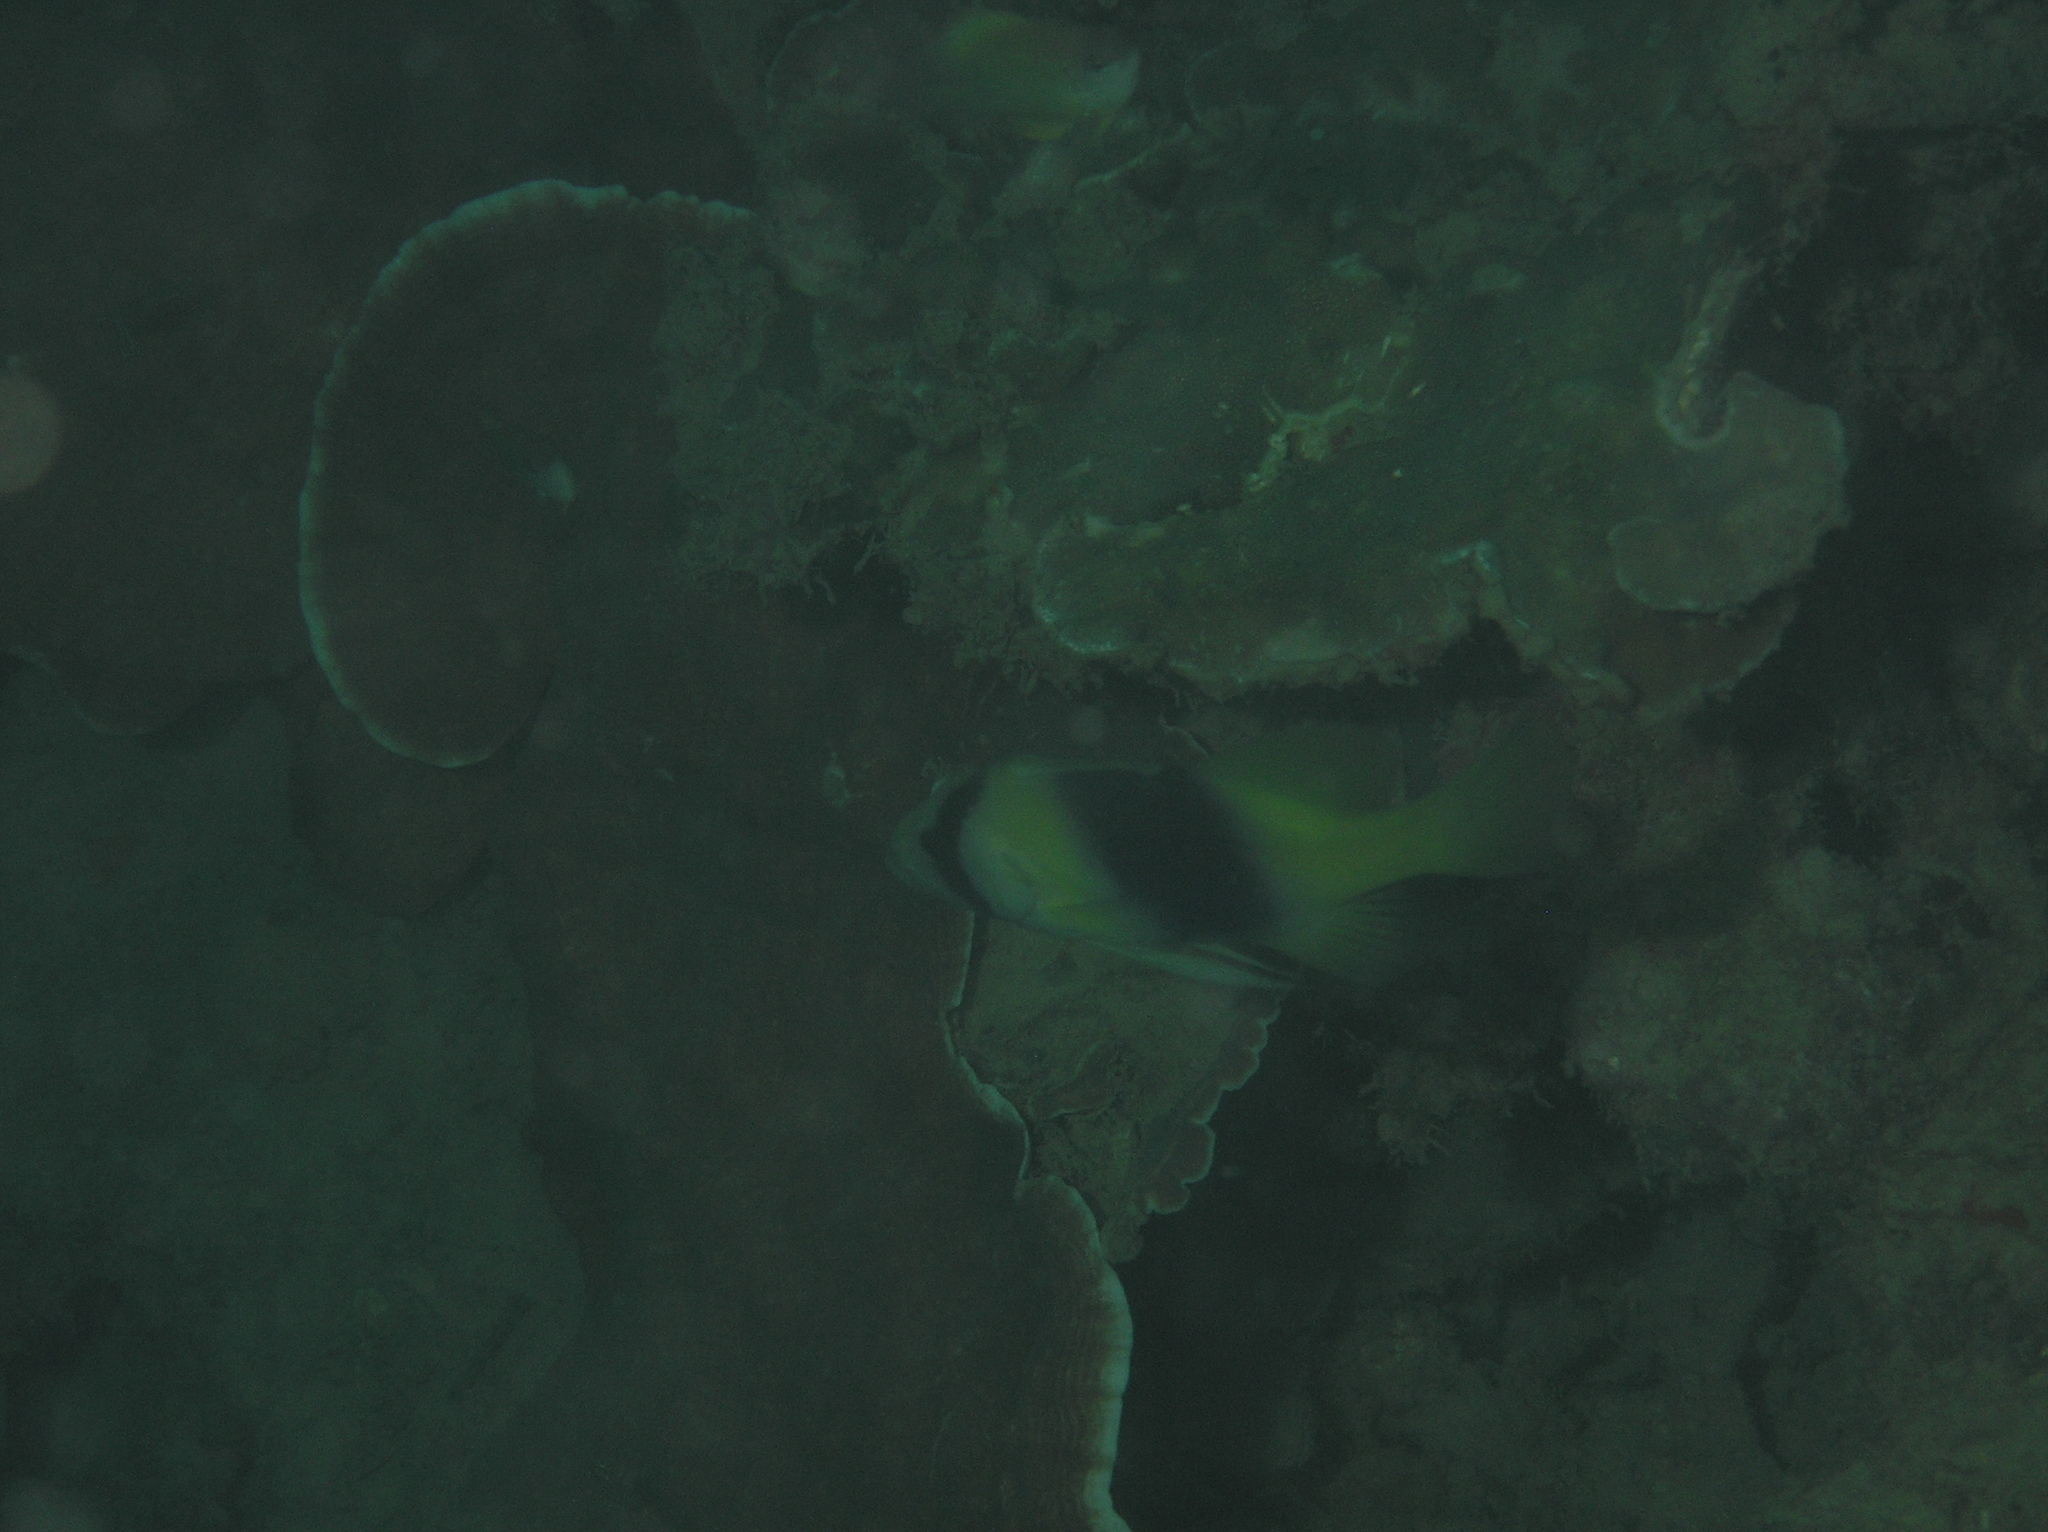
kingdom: Animalia
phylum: Chordata
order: Perciformes
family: Serranidae
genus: Diploprion
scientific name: Diploprion bifasciatum
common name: Barred soapfish
